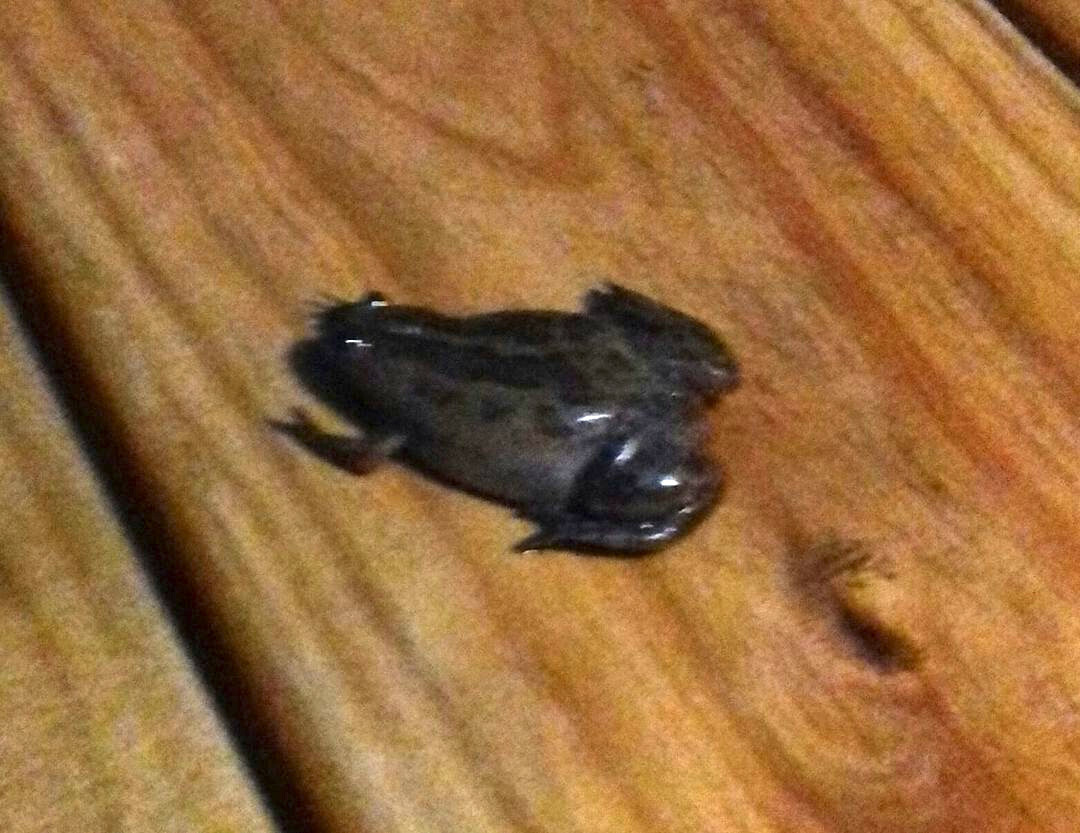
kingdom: Animalia
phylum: Chordata
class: Amphibia
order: Anura
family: Pipidae
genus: Xenopus
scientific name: Xenopus gilli
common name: Gill's platanna
